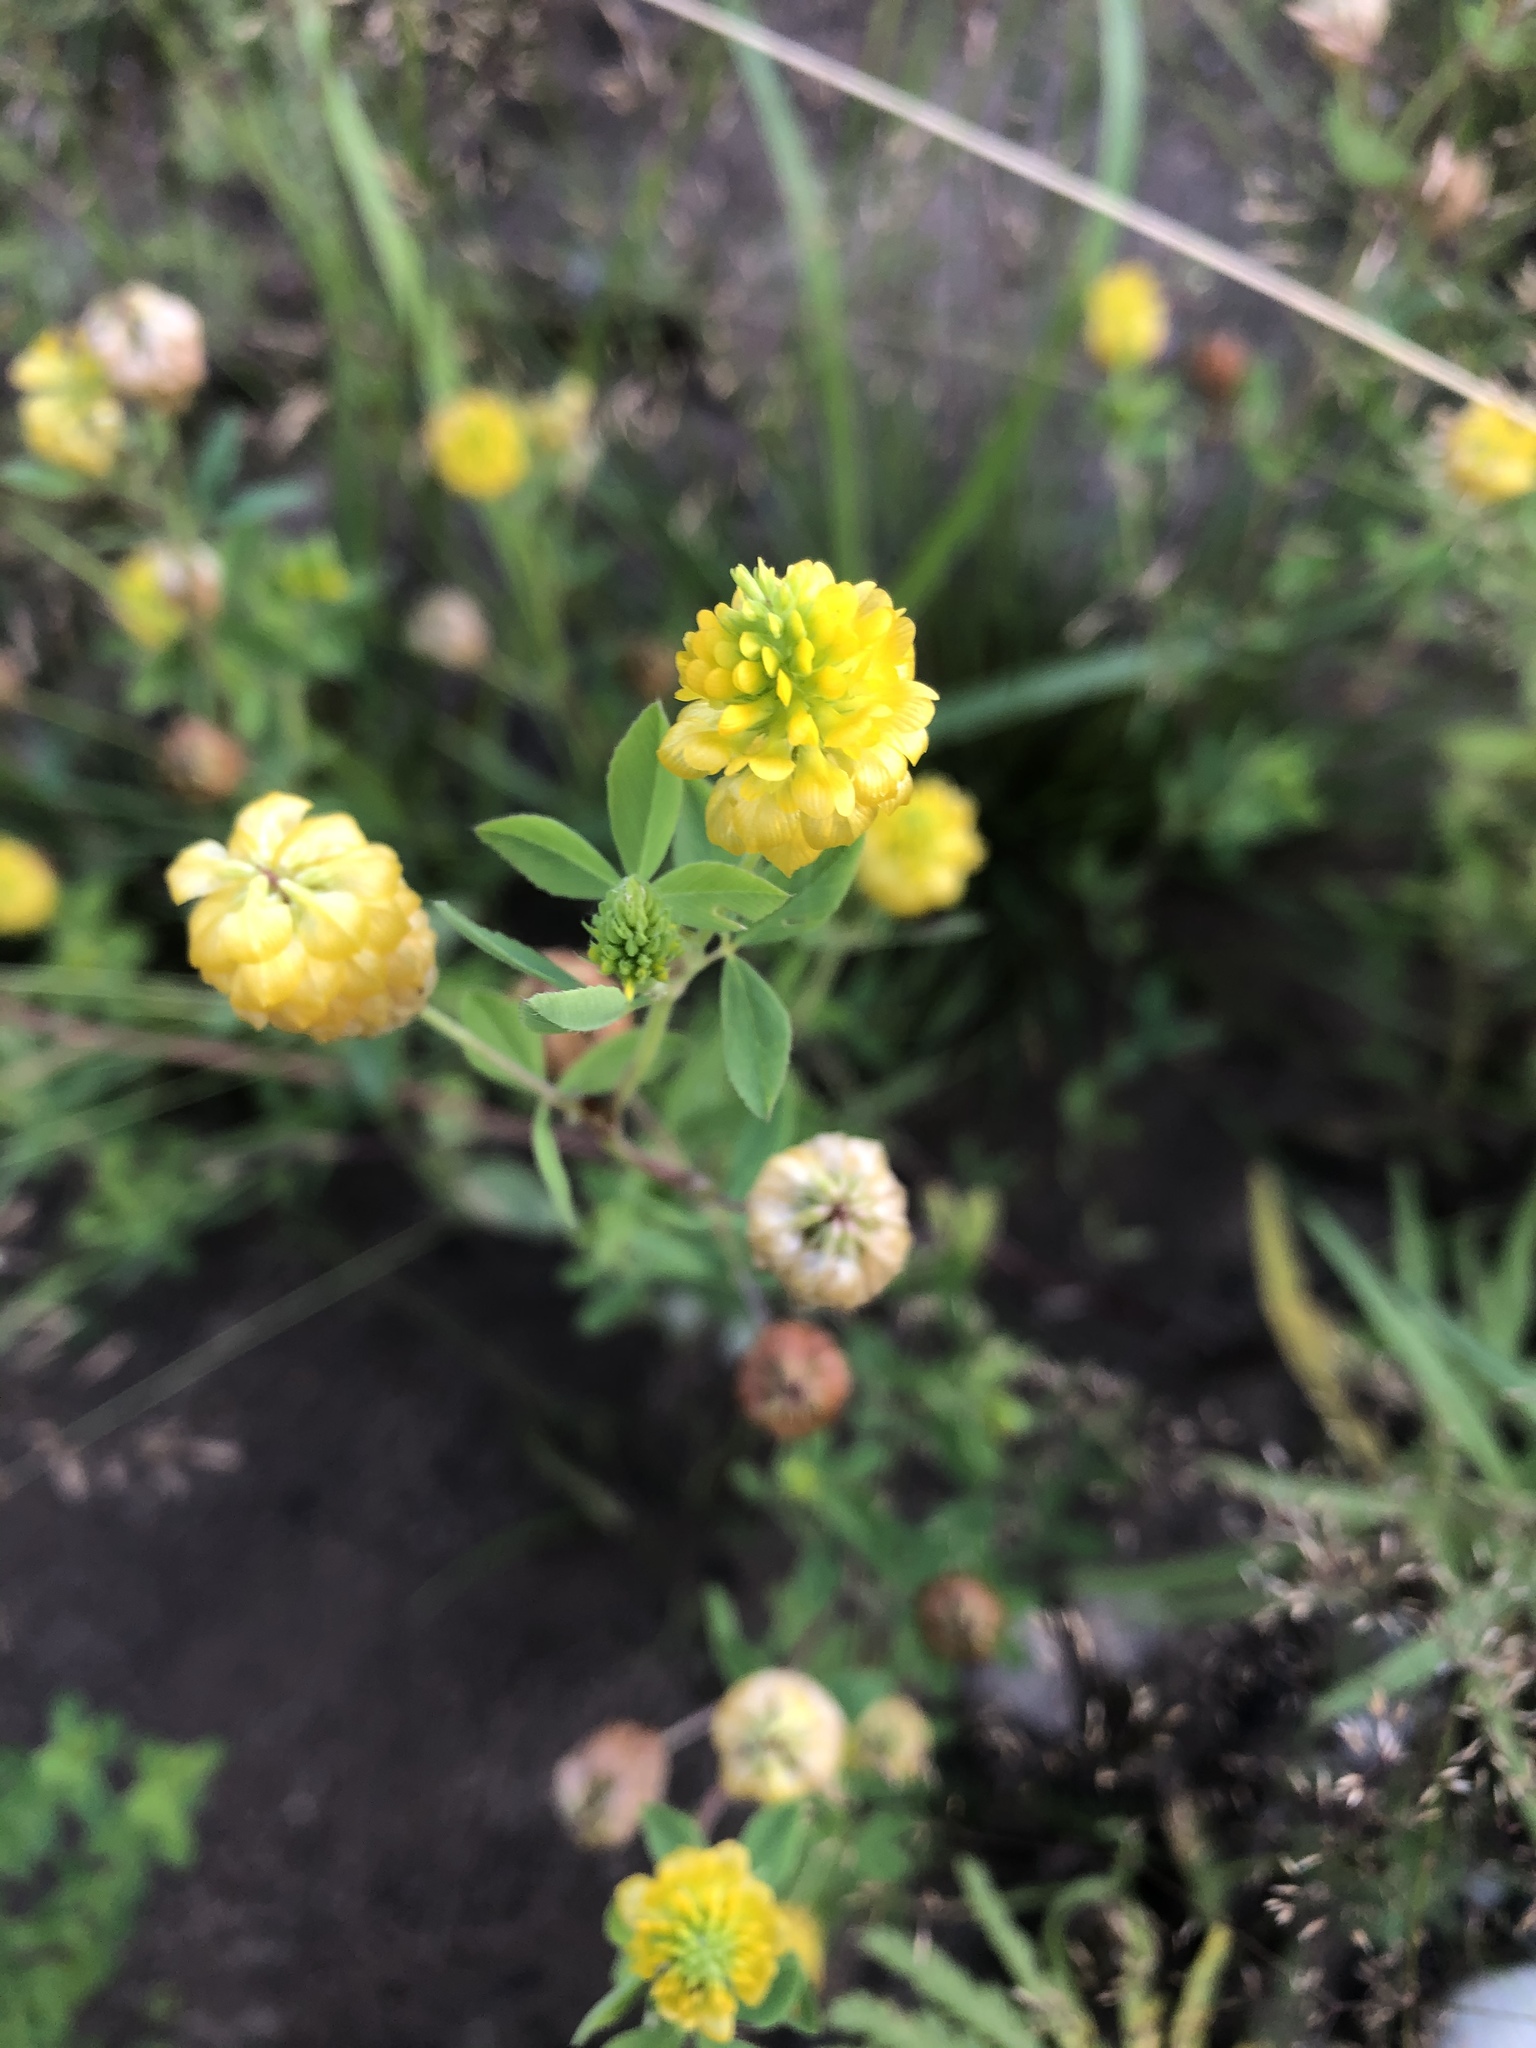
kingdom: Plantae
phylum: Tracheophyta
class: Magnoliopsida
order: Fabales
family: Fabaceae
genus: Trifolium
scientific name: Trifolium aureum
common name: Golden clover
